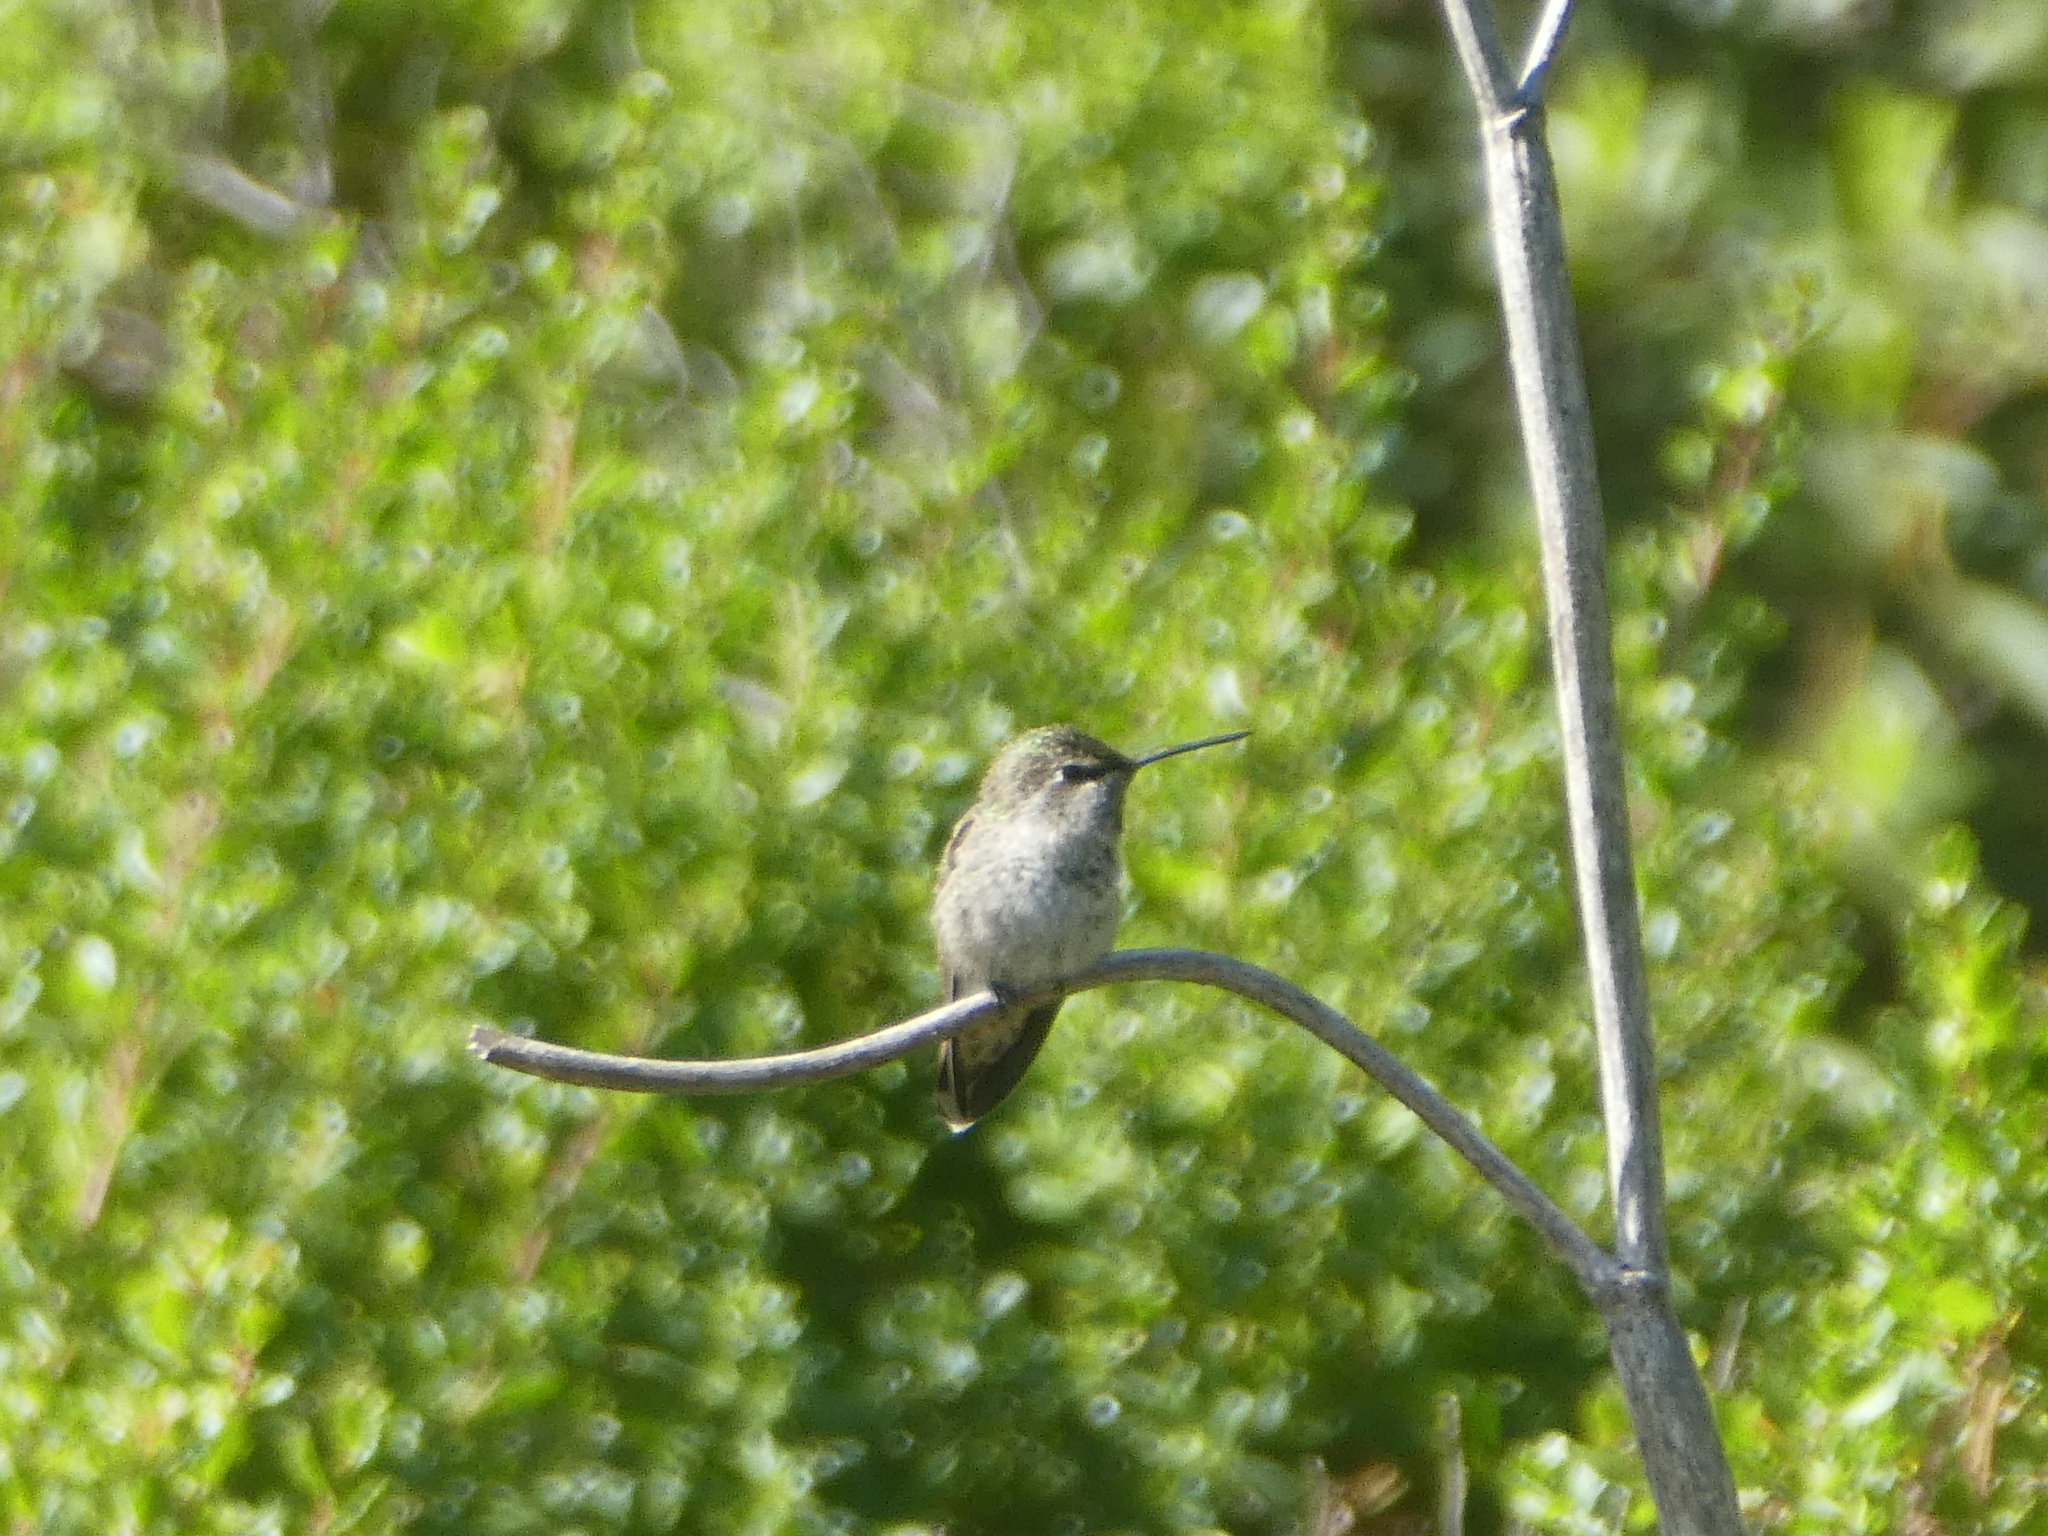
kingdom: Animalia
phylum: Chordata
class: Aves
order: Apodiformes
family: Trochilidae
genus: Calypte
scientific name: Calypte anna
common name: Anna's hummingbird
